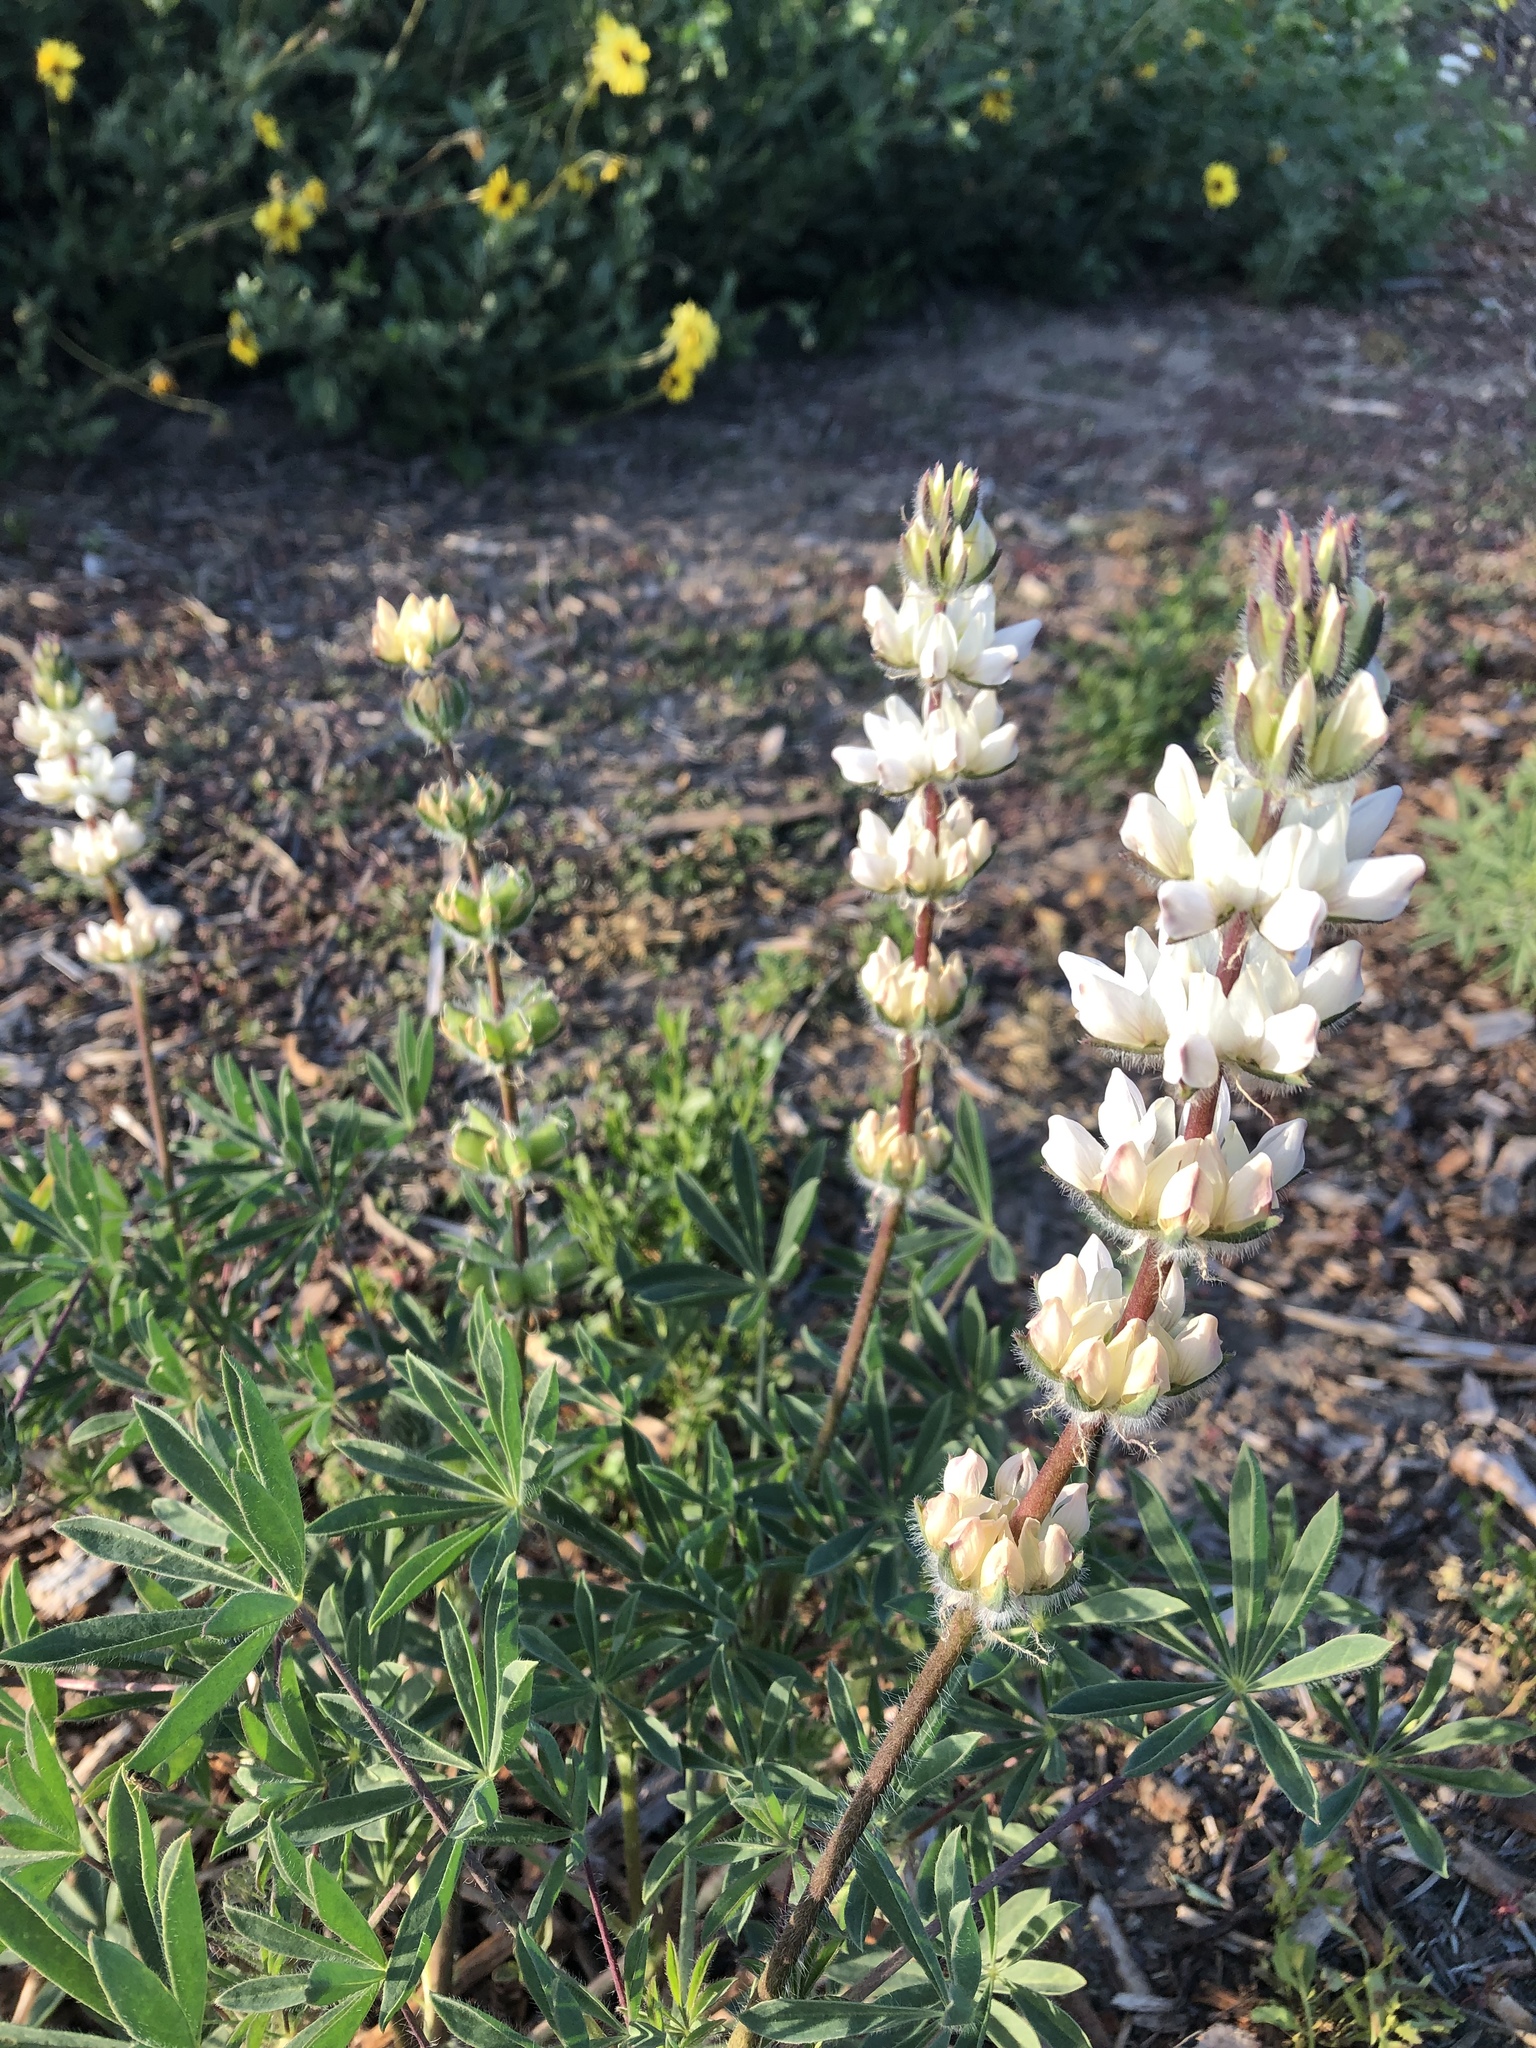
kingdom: Plantae
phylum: Tracheophyta
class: Magnoliopsida
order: Fabales
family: Fabaceae
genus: Lupinus
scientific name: Lupinus microcarpus
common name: Chick lupine
